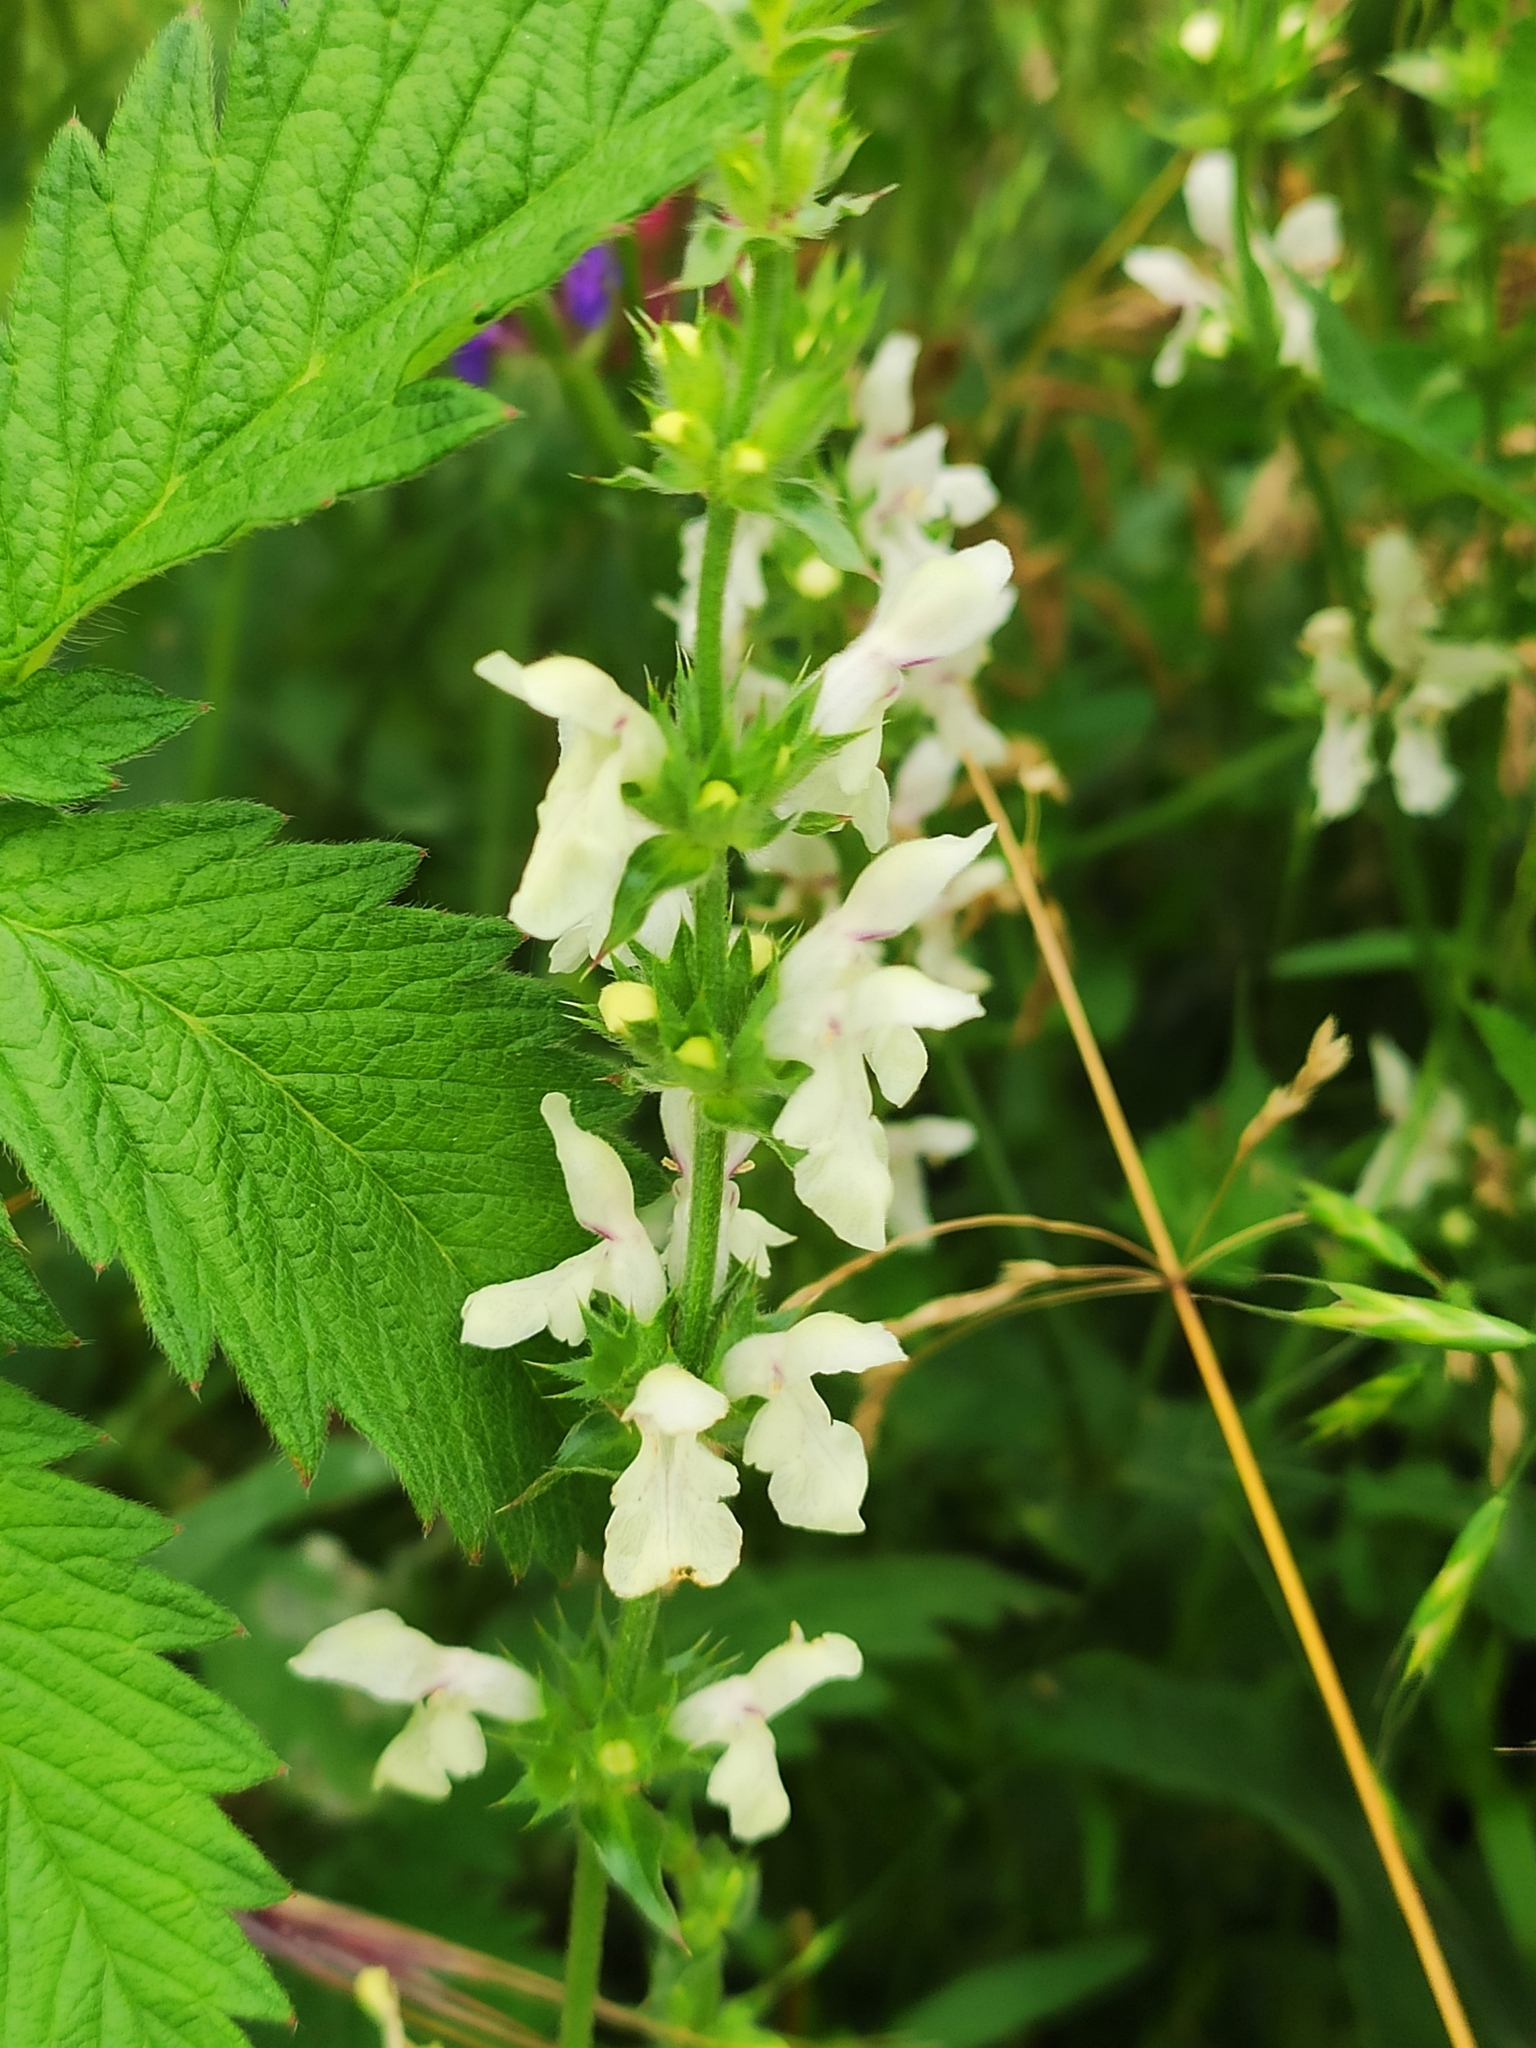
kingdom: Plantae
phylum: Tracheophyta
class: Magnoliopsida
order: Lamiales
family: Lamiaceae
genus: Stachys
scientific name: Stachys recta
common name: Perennial yellow-woundwort
